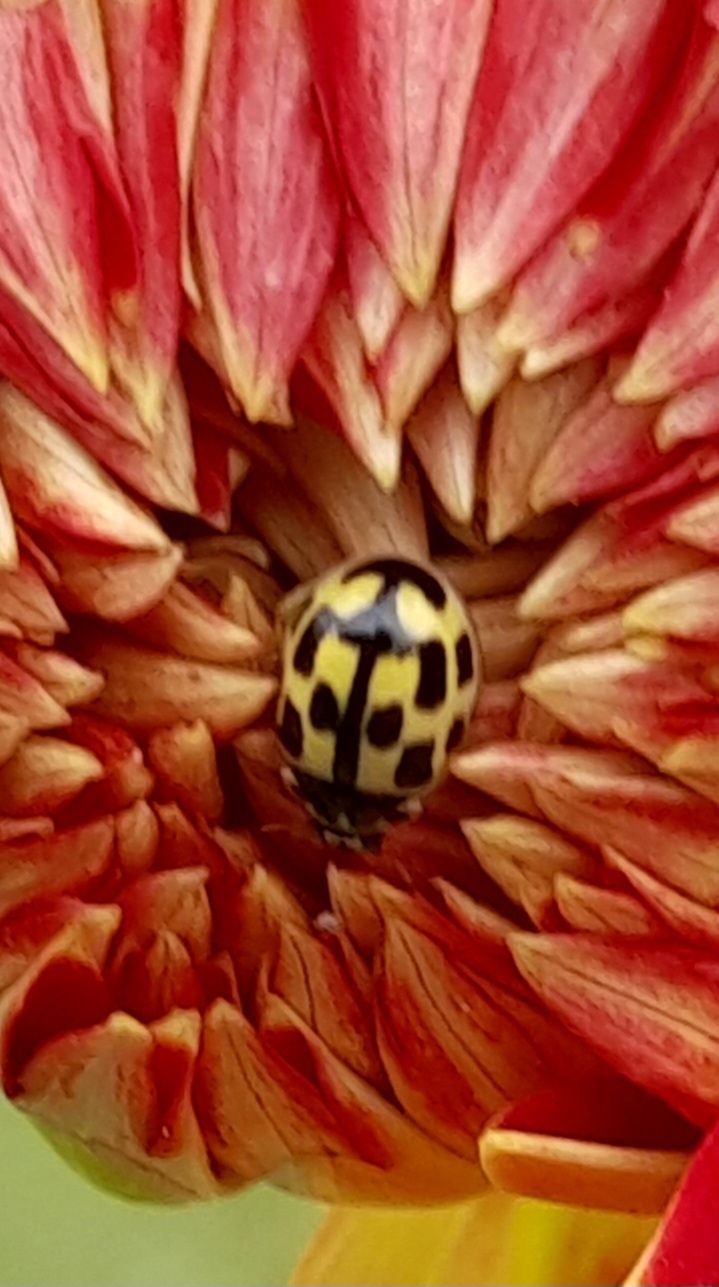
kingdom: Animalia
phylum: Arthropoda
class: Insecta
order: Coleoptera
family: Coccinellidae
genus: Propylaea
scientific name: Propylaea quatuordecimpunctata
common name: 14-spotted ladybird beetle
